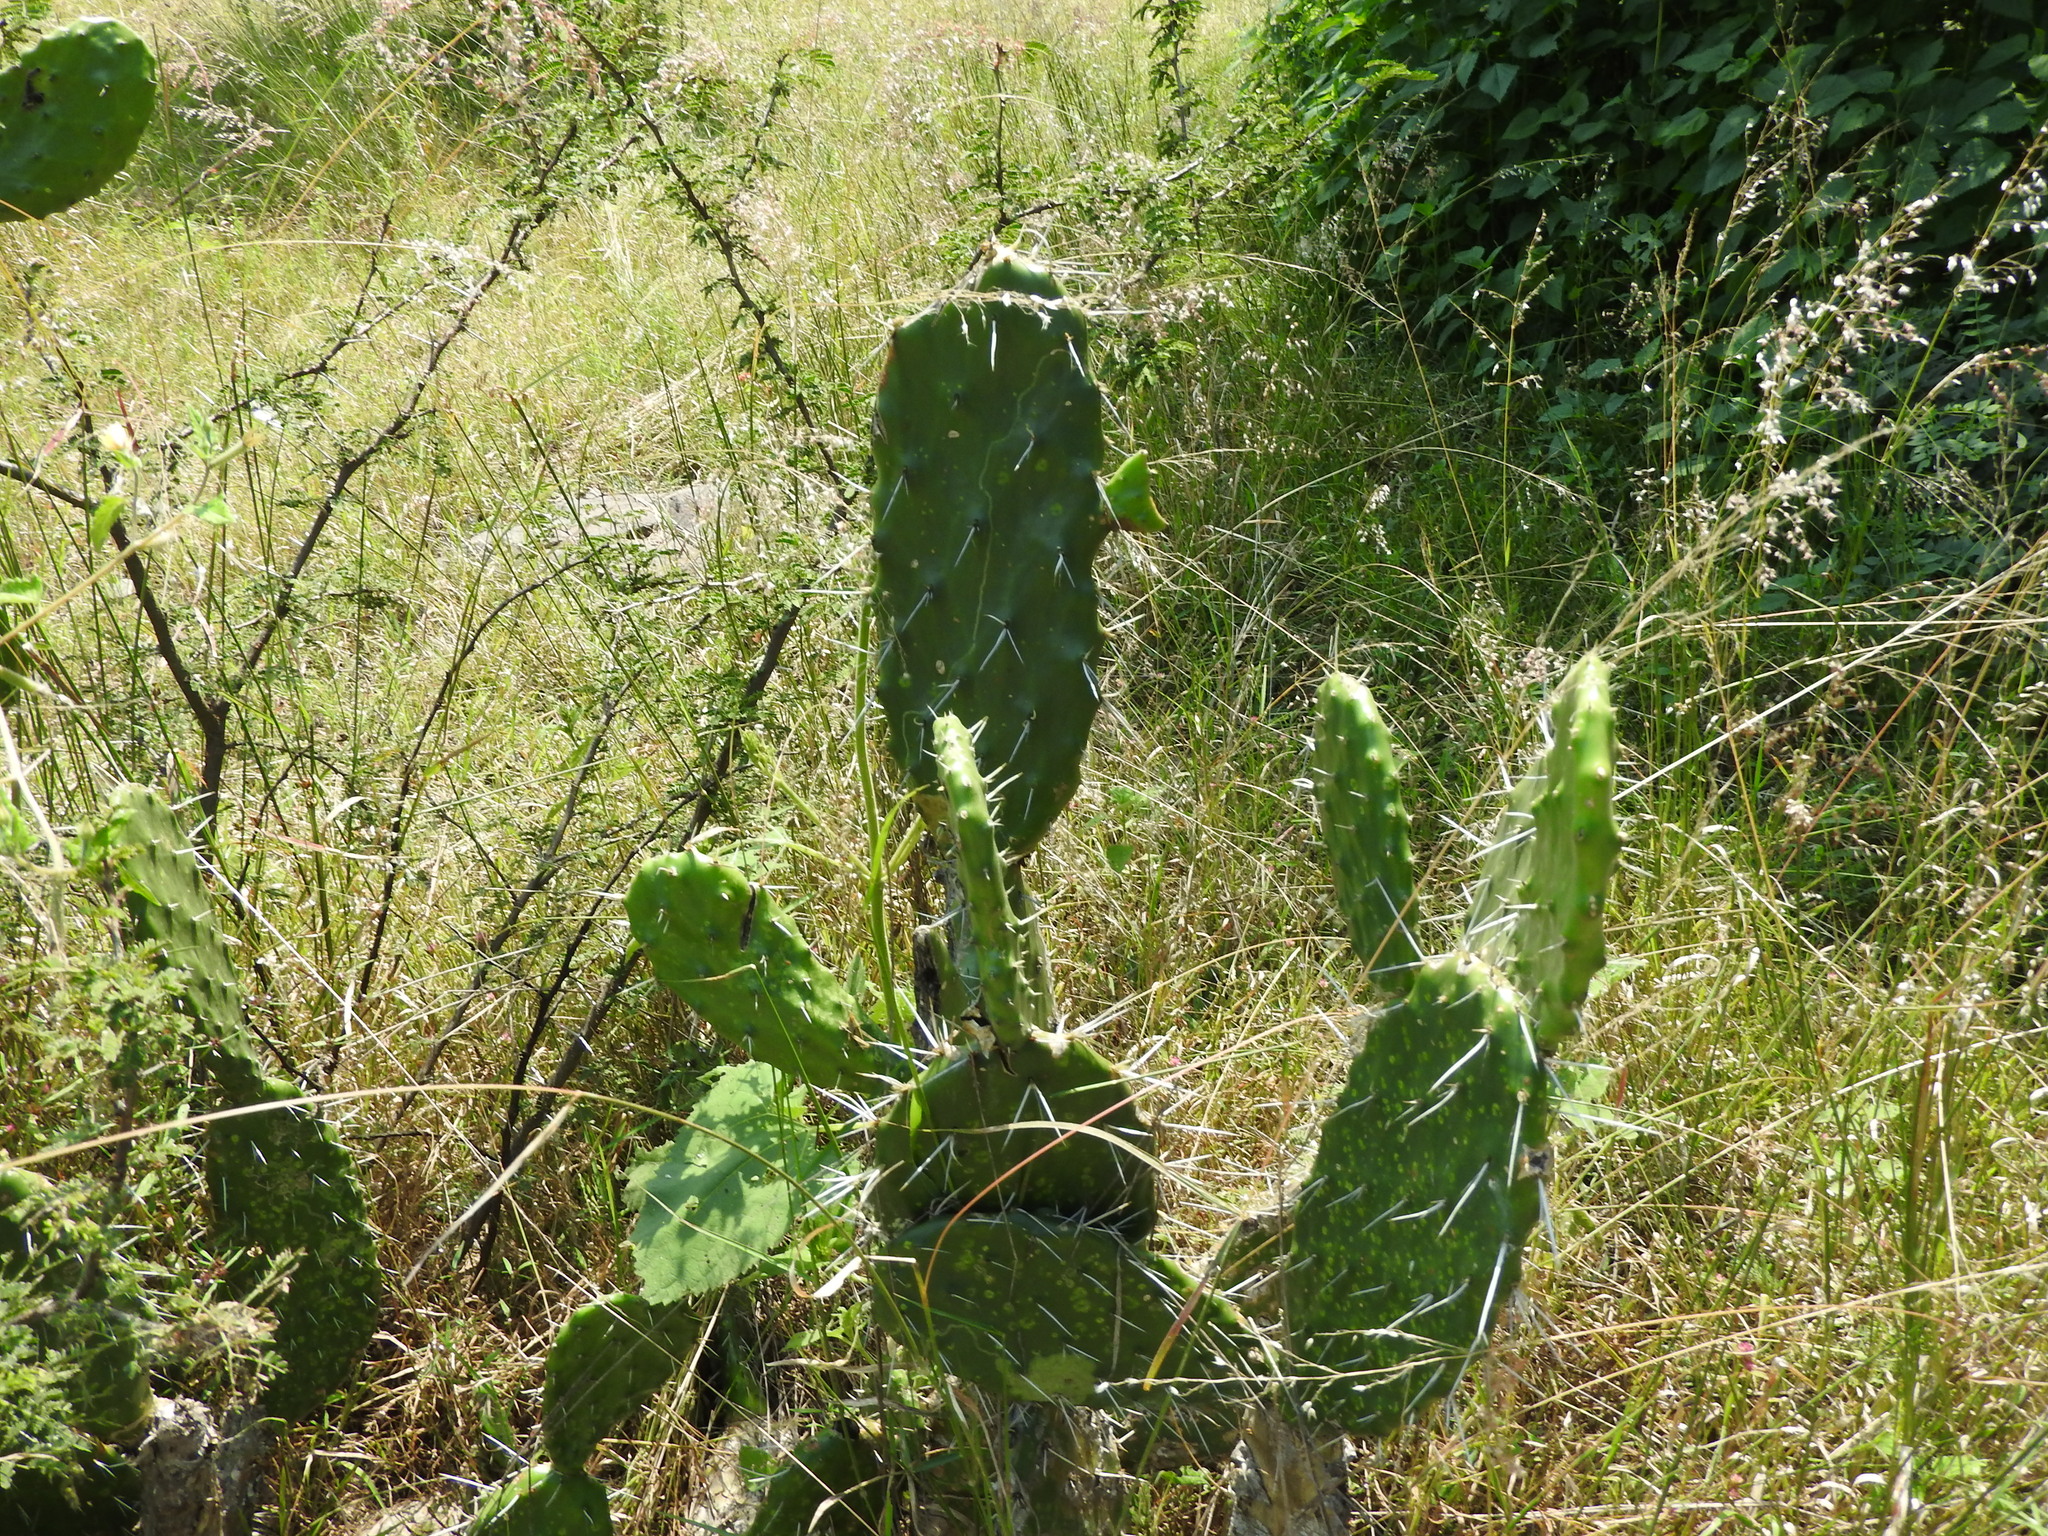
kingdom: Plantae
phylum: Tracheophyta
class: Magnoliopsida
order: Caryophyllales
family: Cactaceae
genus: Opuntia
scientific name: Opuntia lasiacantha
